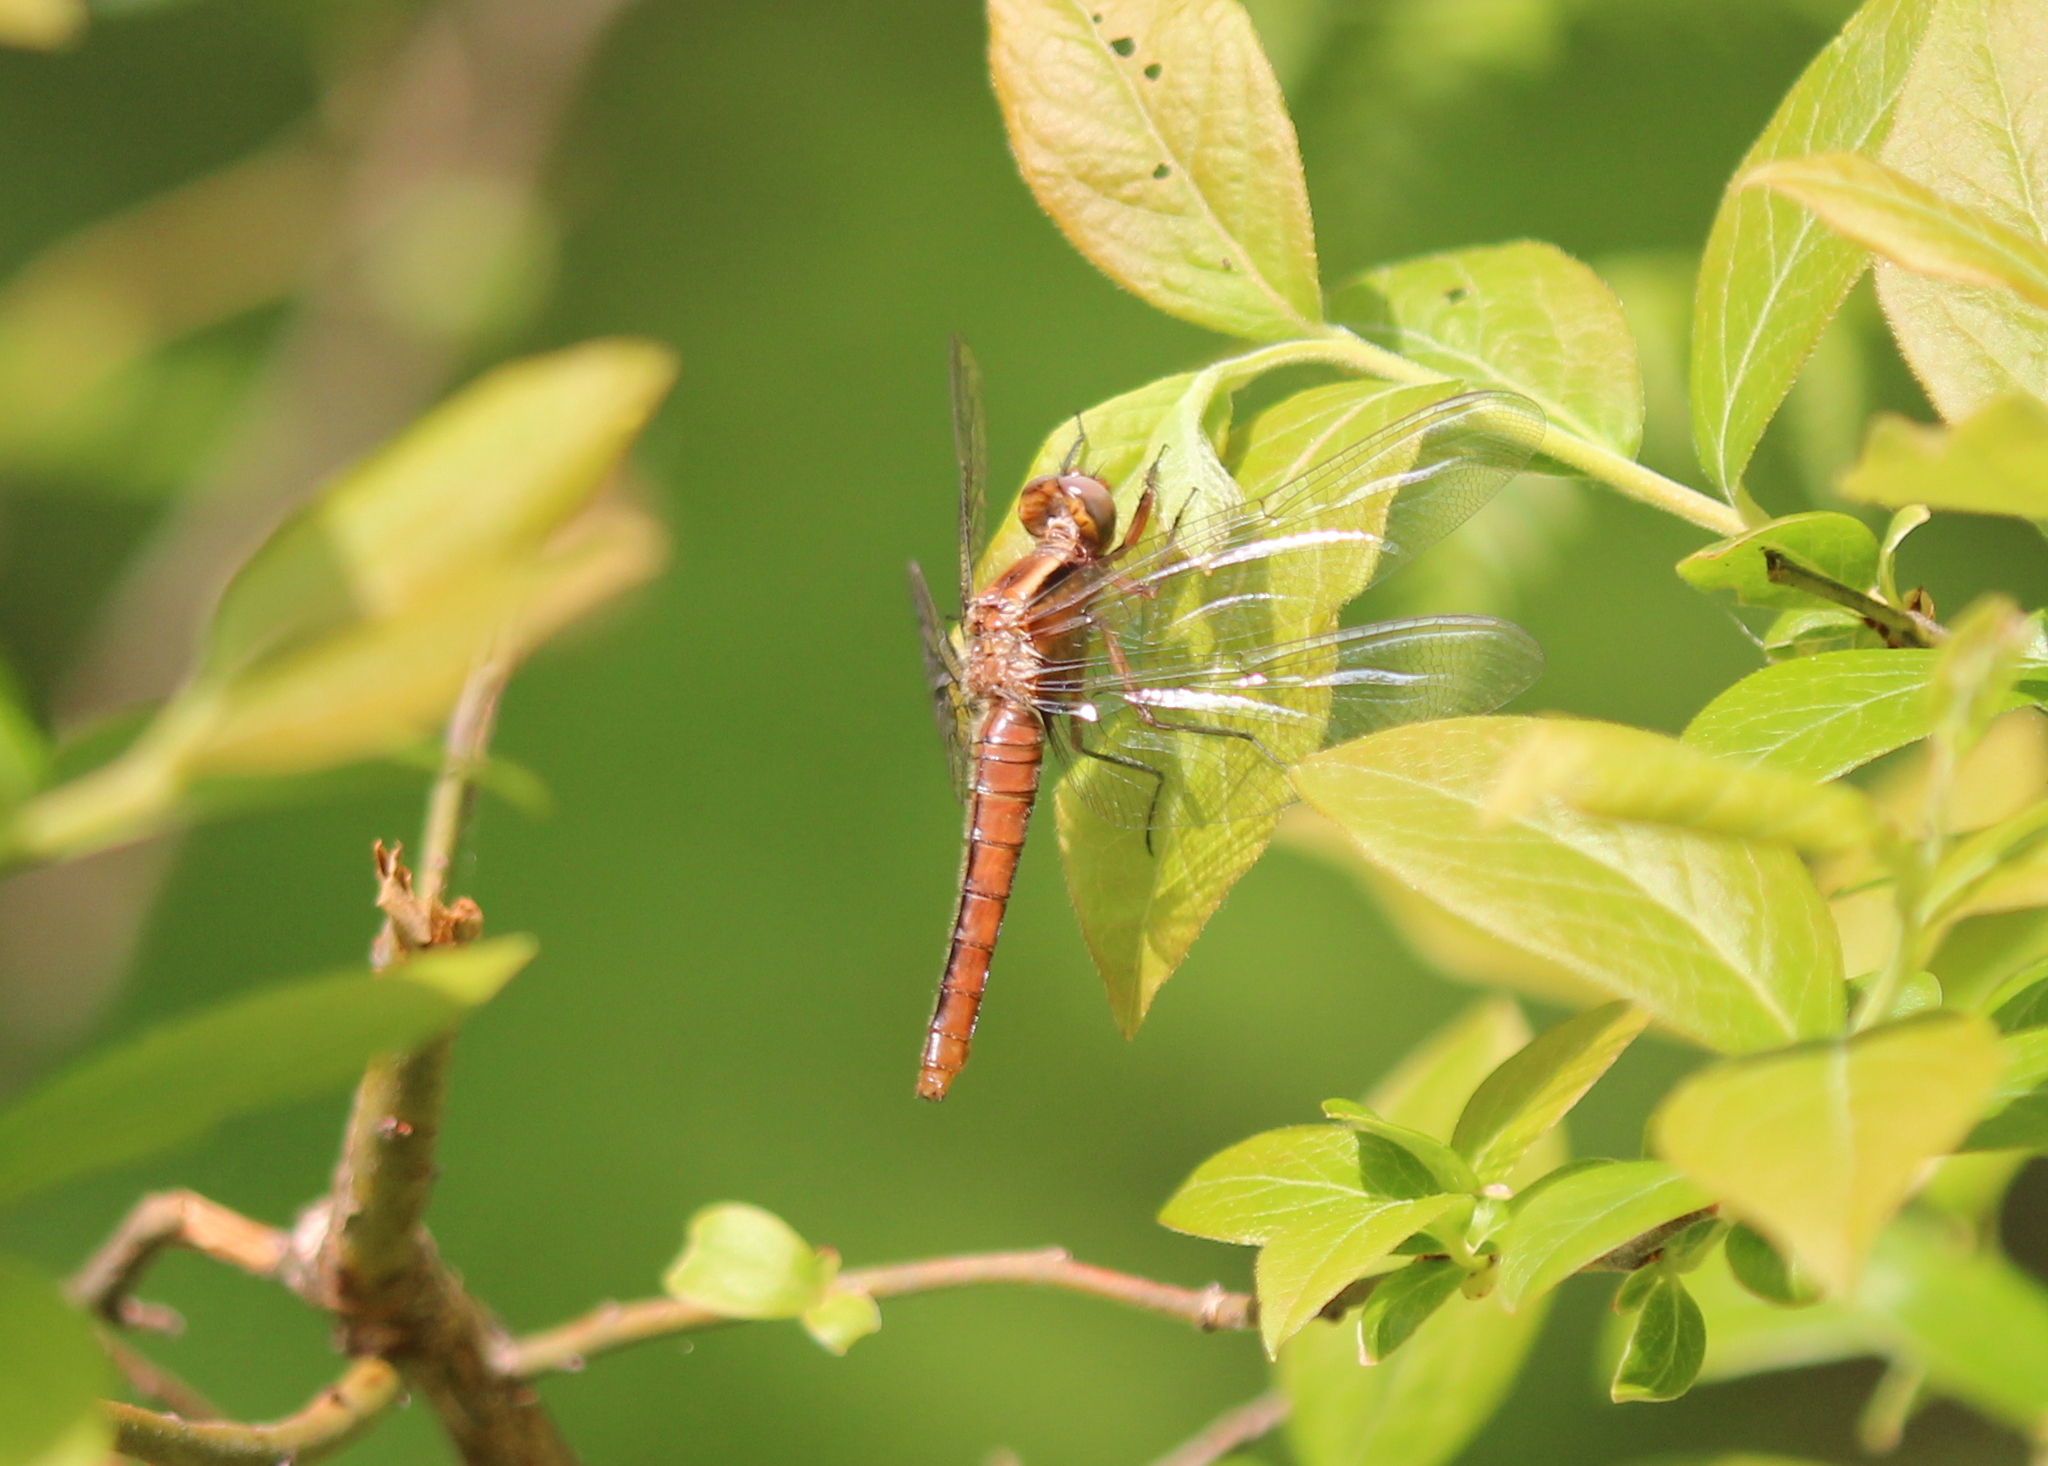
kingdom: Animalia
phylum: Arthropoda
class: Insecta
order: Odonata
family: Libellulidae
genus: Ladona
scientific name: Ladona julia
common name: Chalk-fronted corporal
